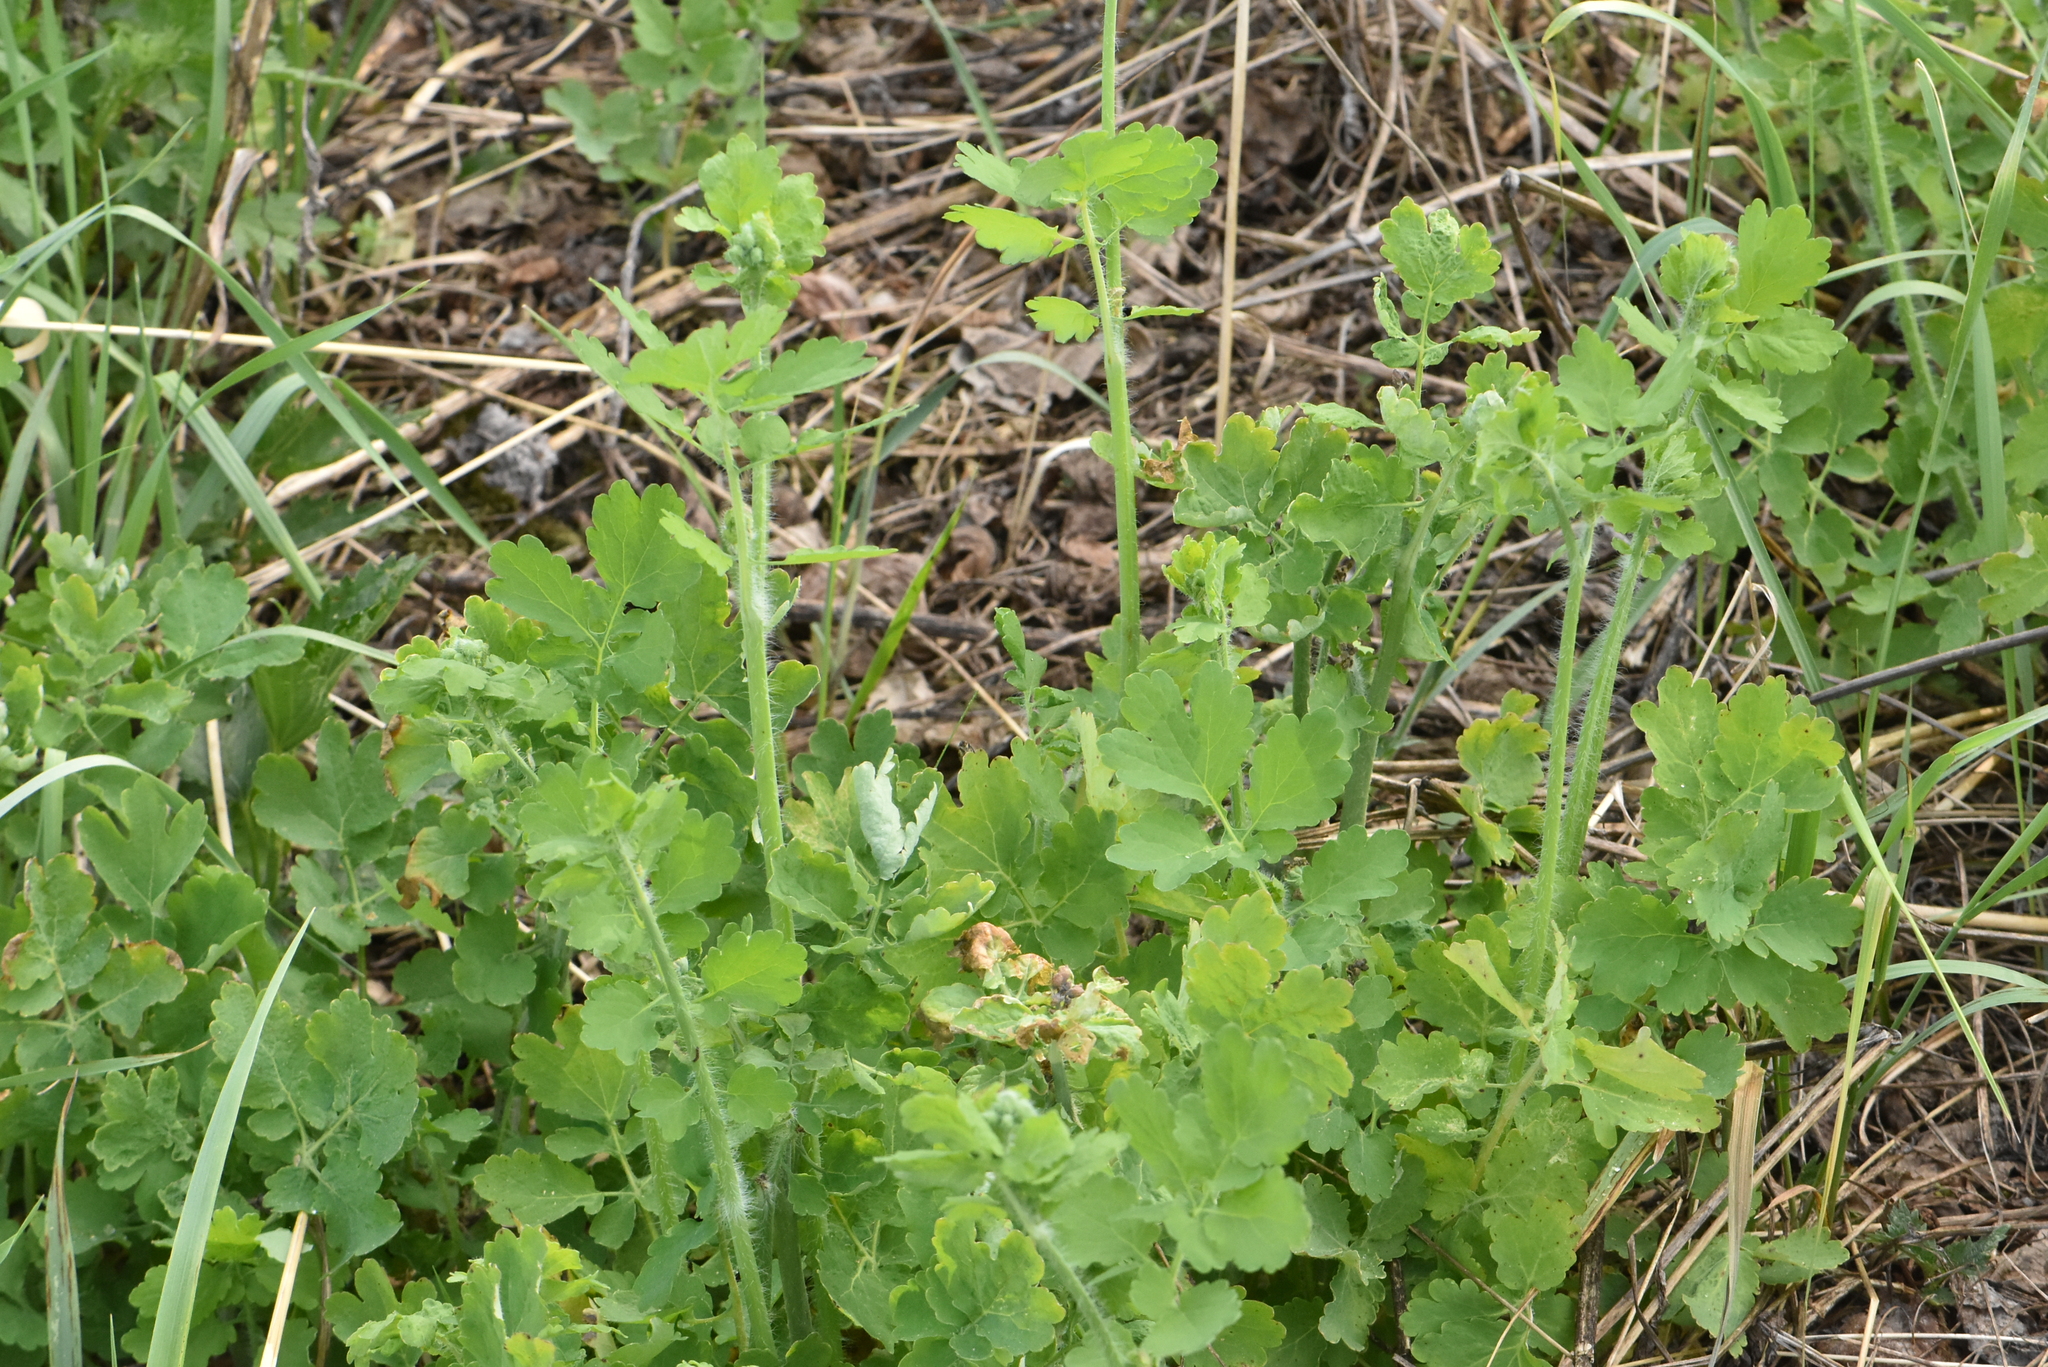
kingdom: Plantae
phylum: Tracheophyta
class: Magnoliopsida
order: Ranunculales
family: Papaveraceae
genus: Chelidonium
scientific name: Chelidonium majus
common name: Greater celandine
